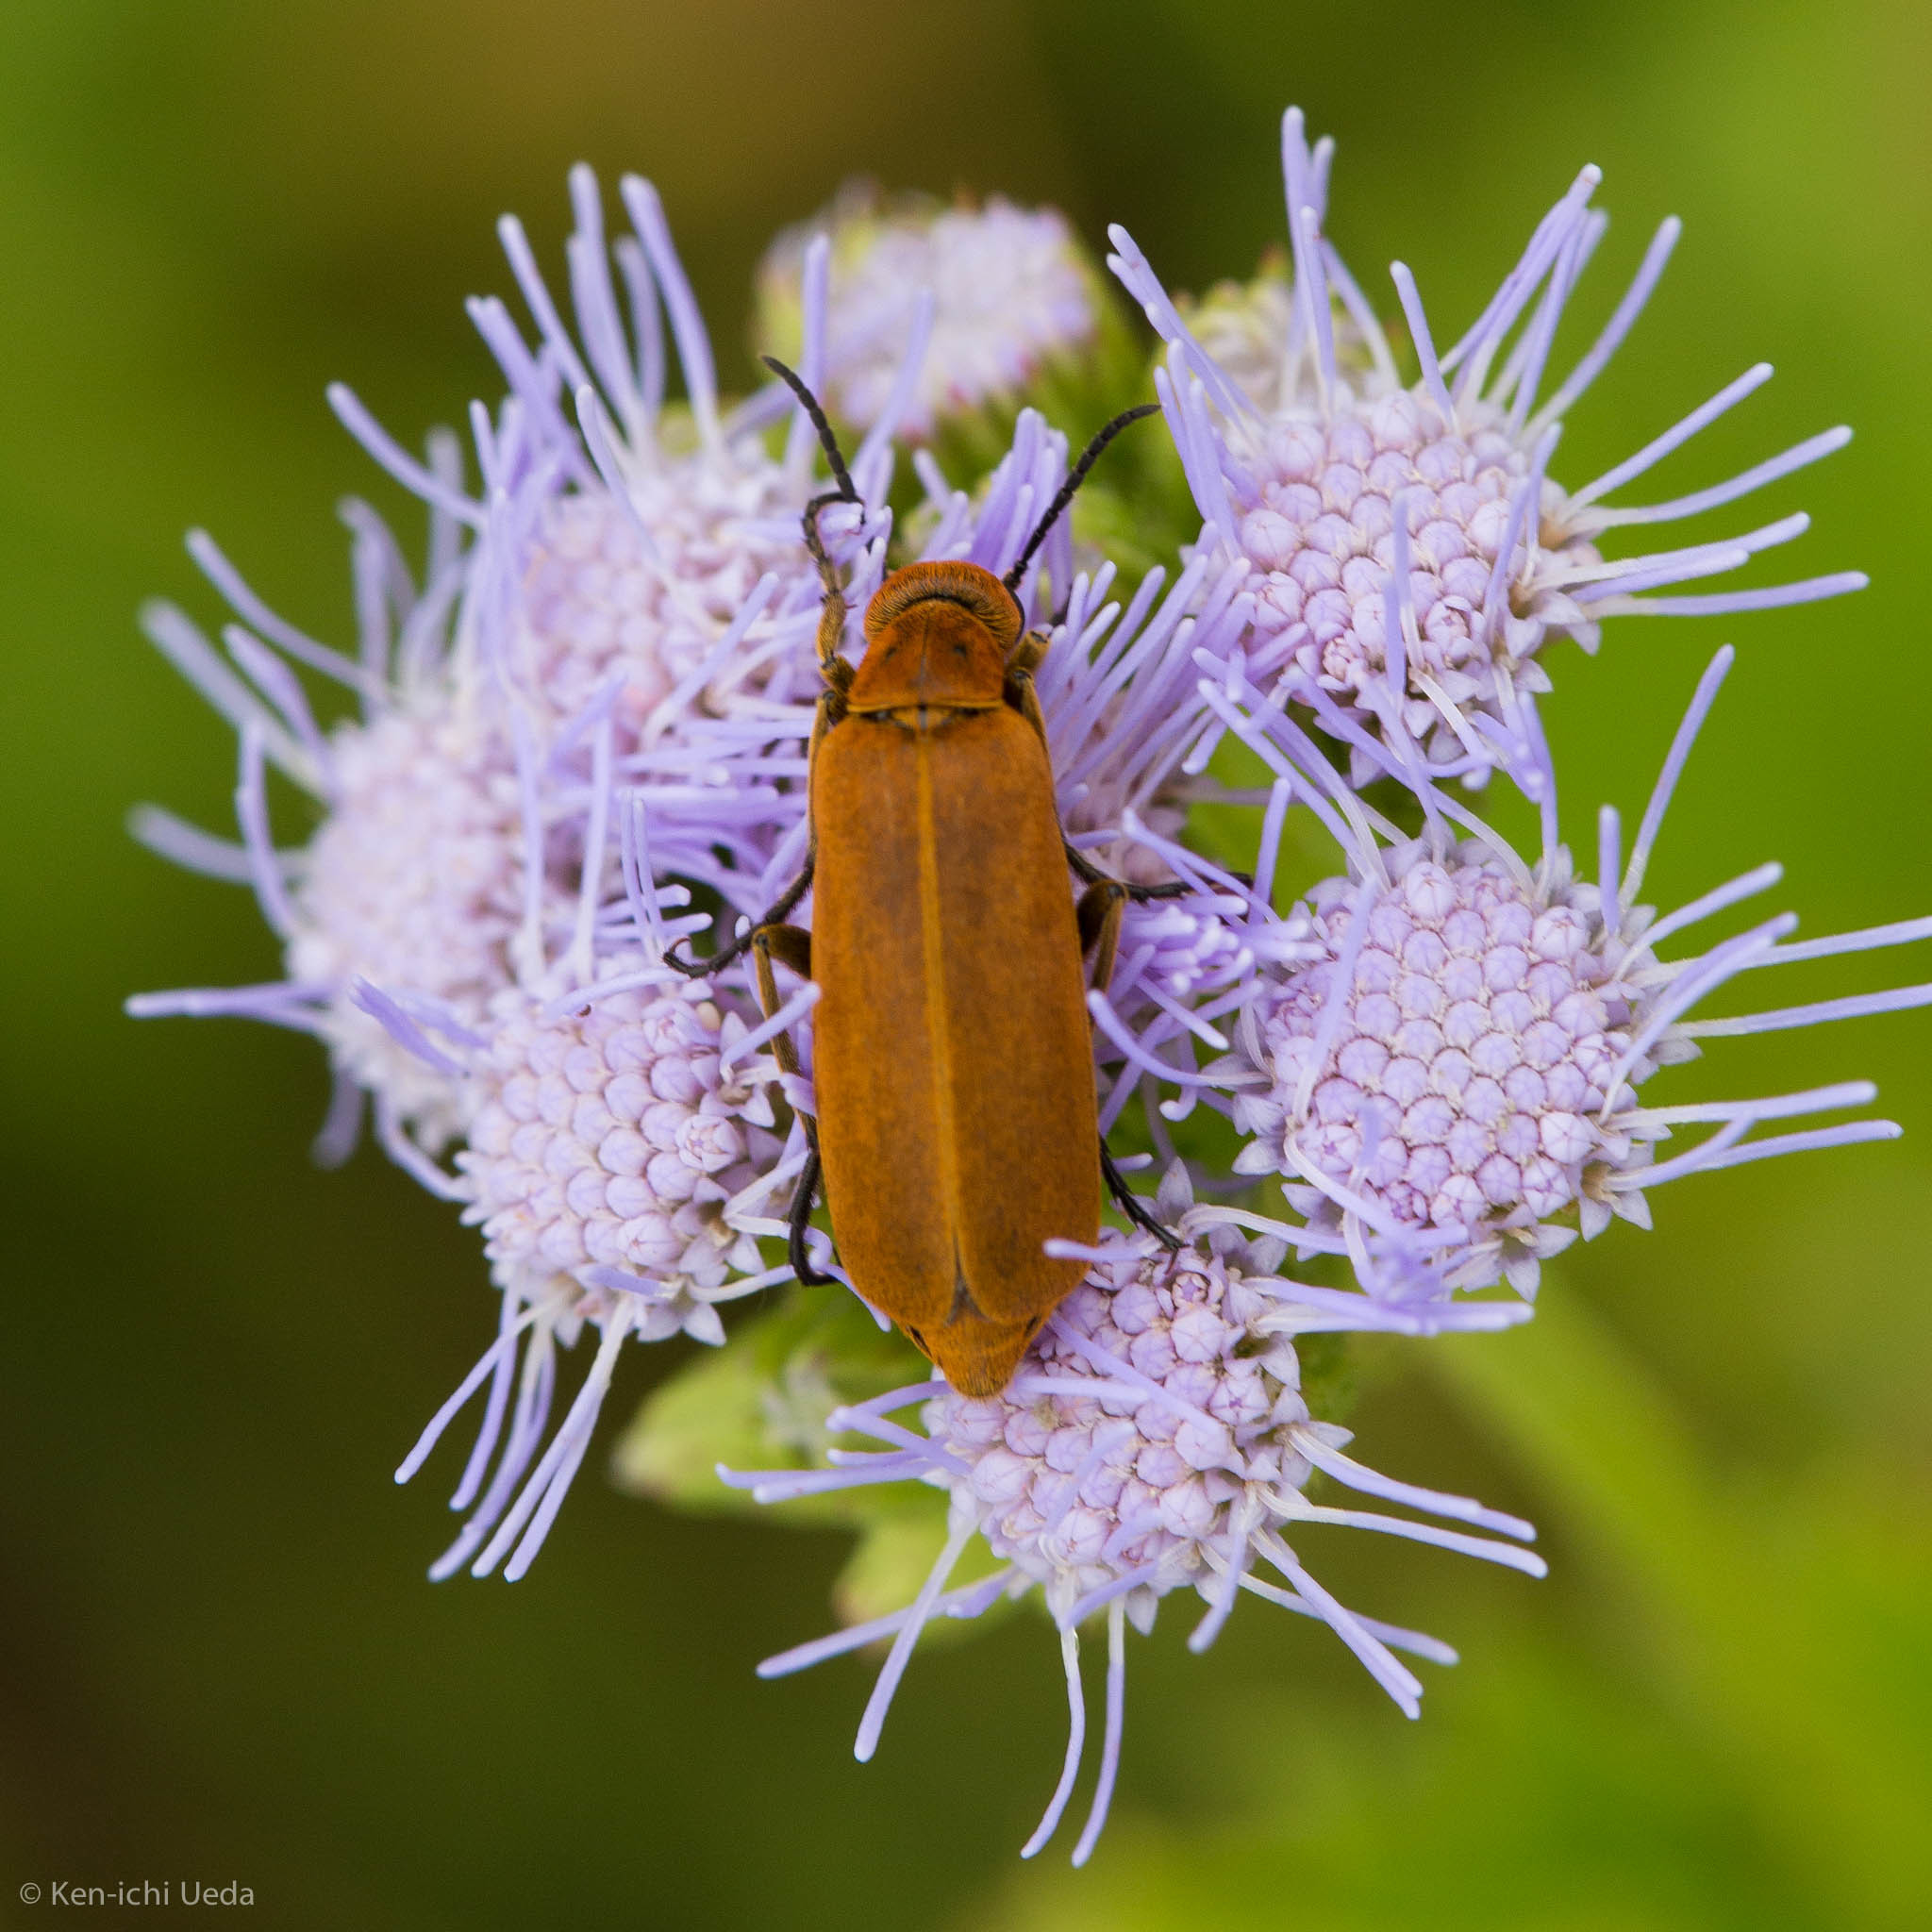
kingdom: Animalia
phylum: Arthropoda
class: Insecta
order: Coleoptera
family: Meloidae
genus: Epicauta
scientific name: Epicauta callosa
